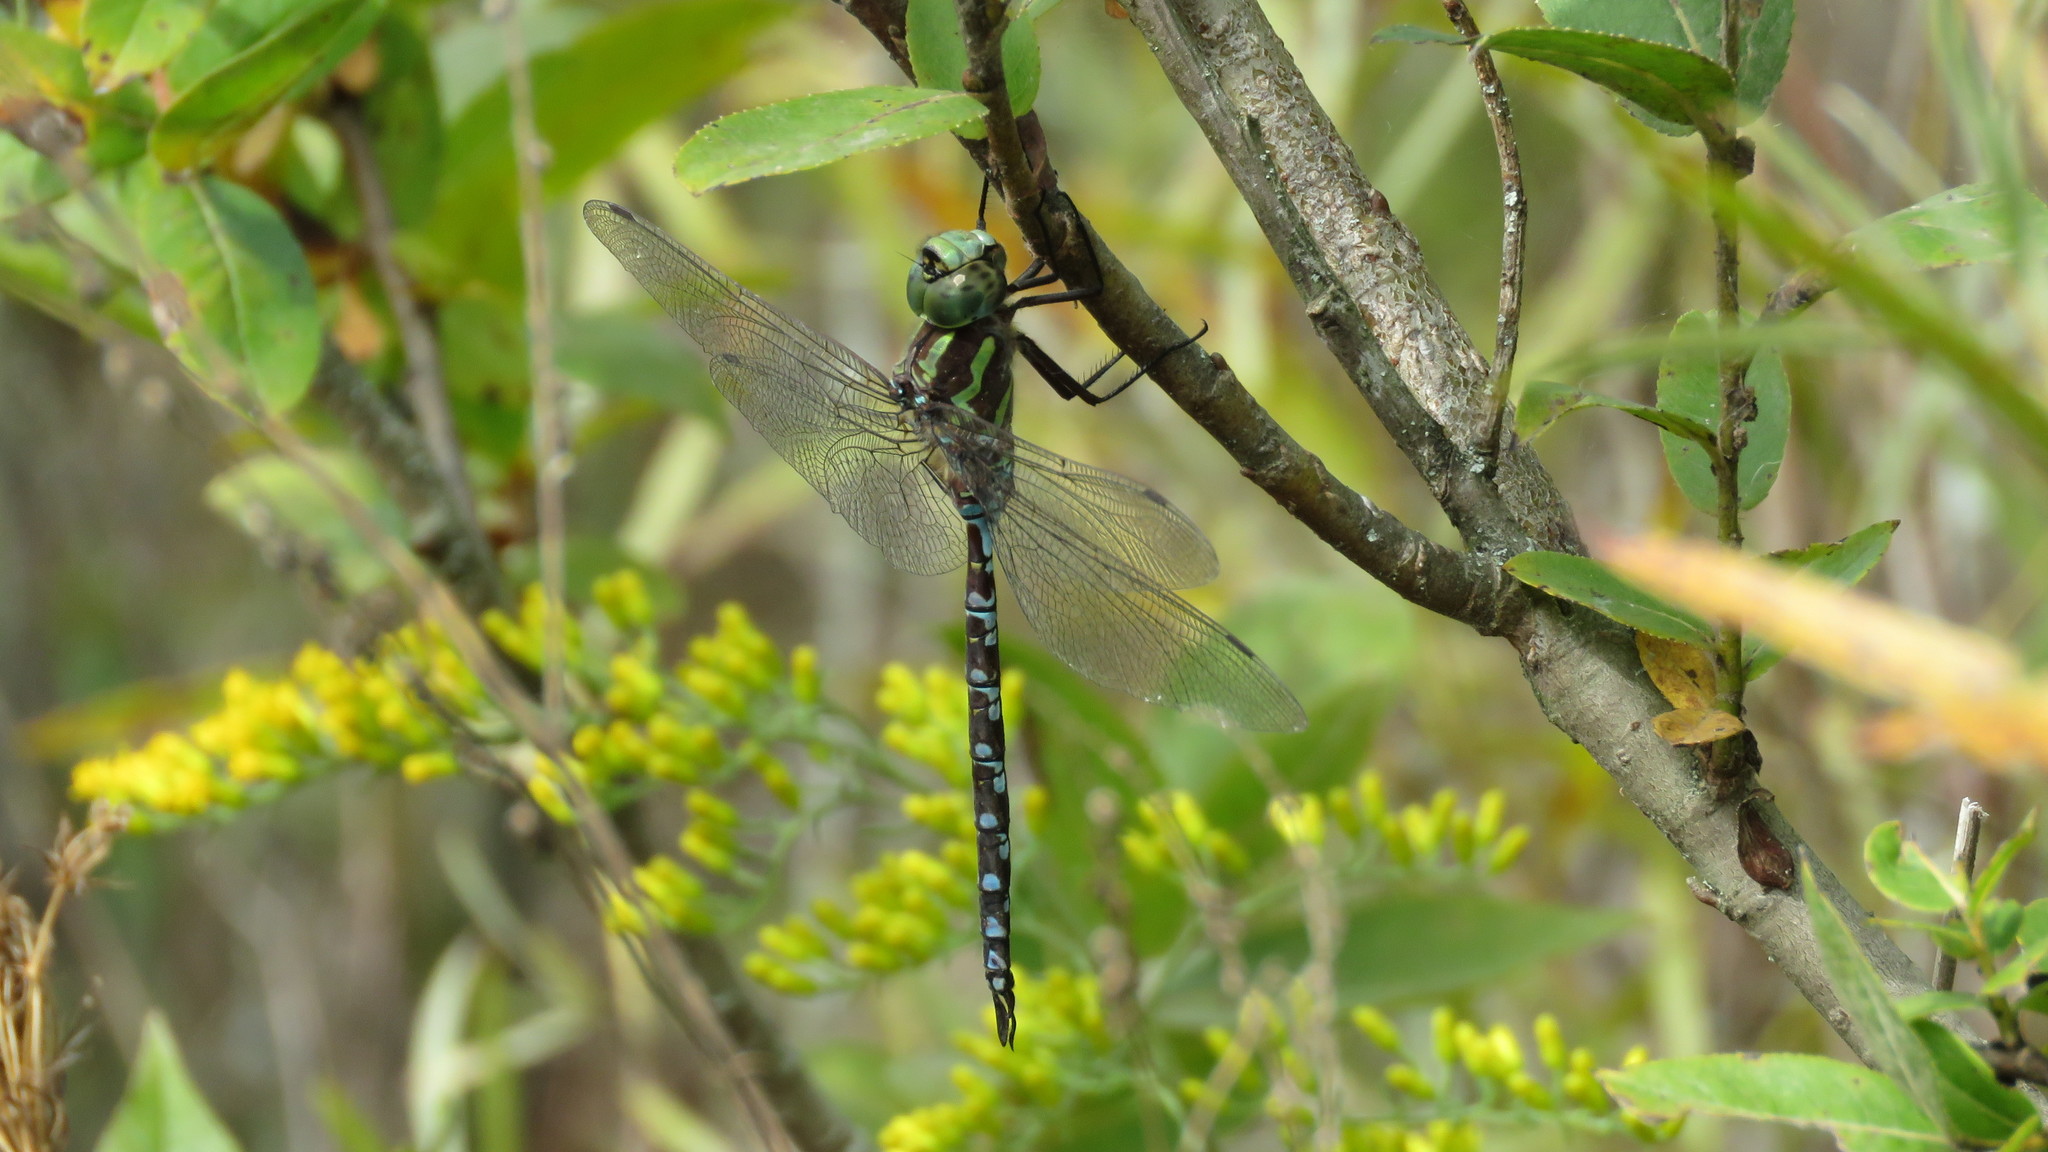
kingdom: Animalia
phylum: Arthropoda
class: Insecta
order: Odonata
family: Aeshnidae
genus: Aeshna
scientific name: Aeshna verticalis
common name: Green-striped darner
